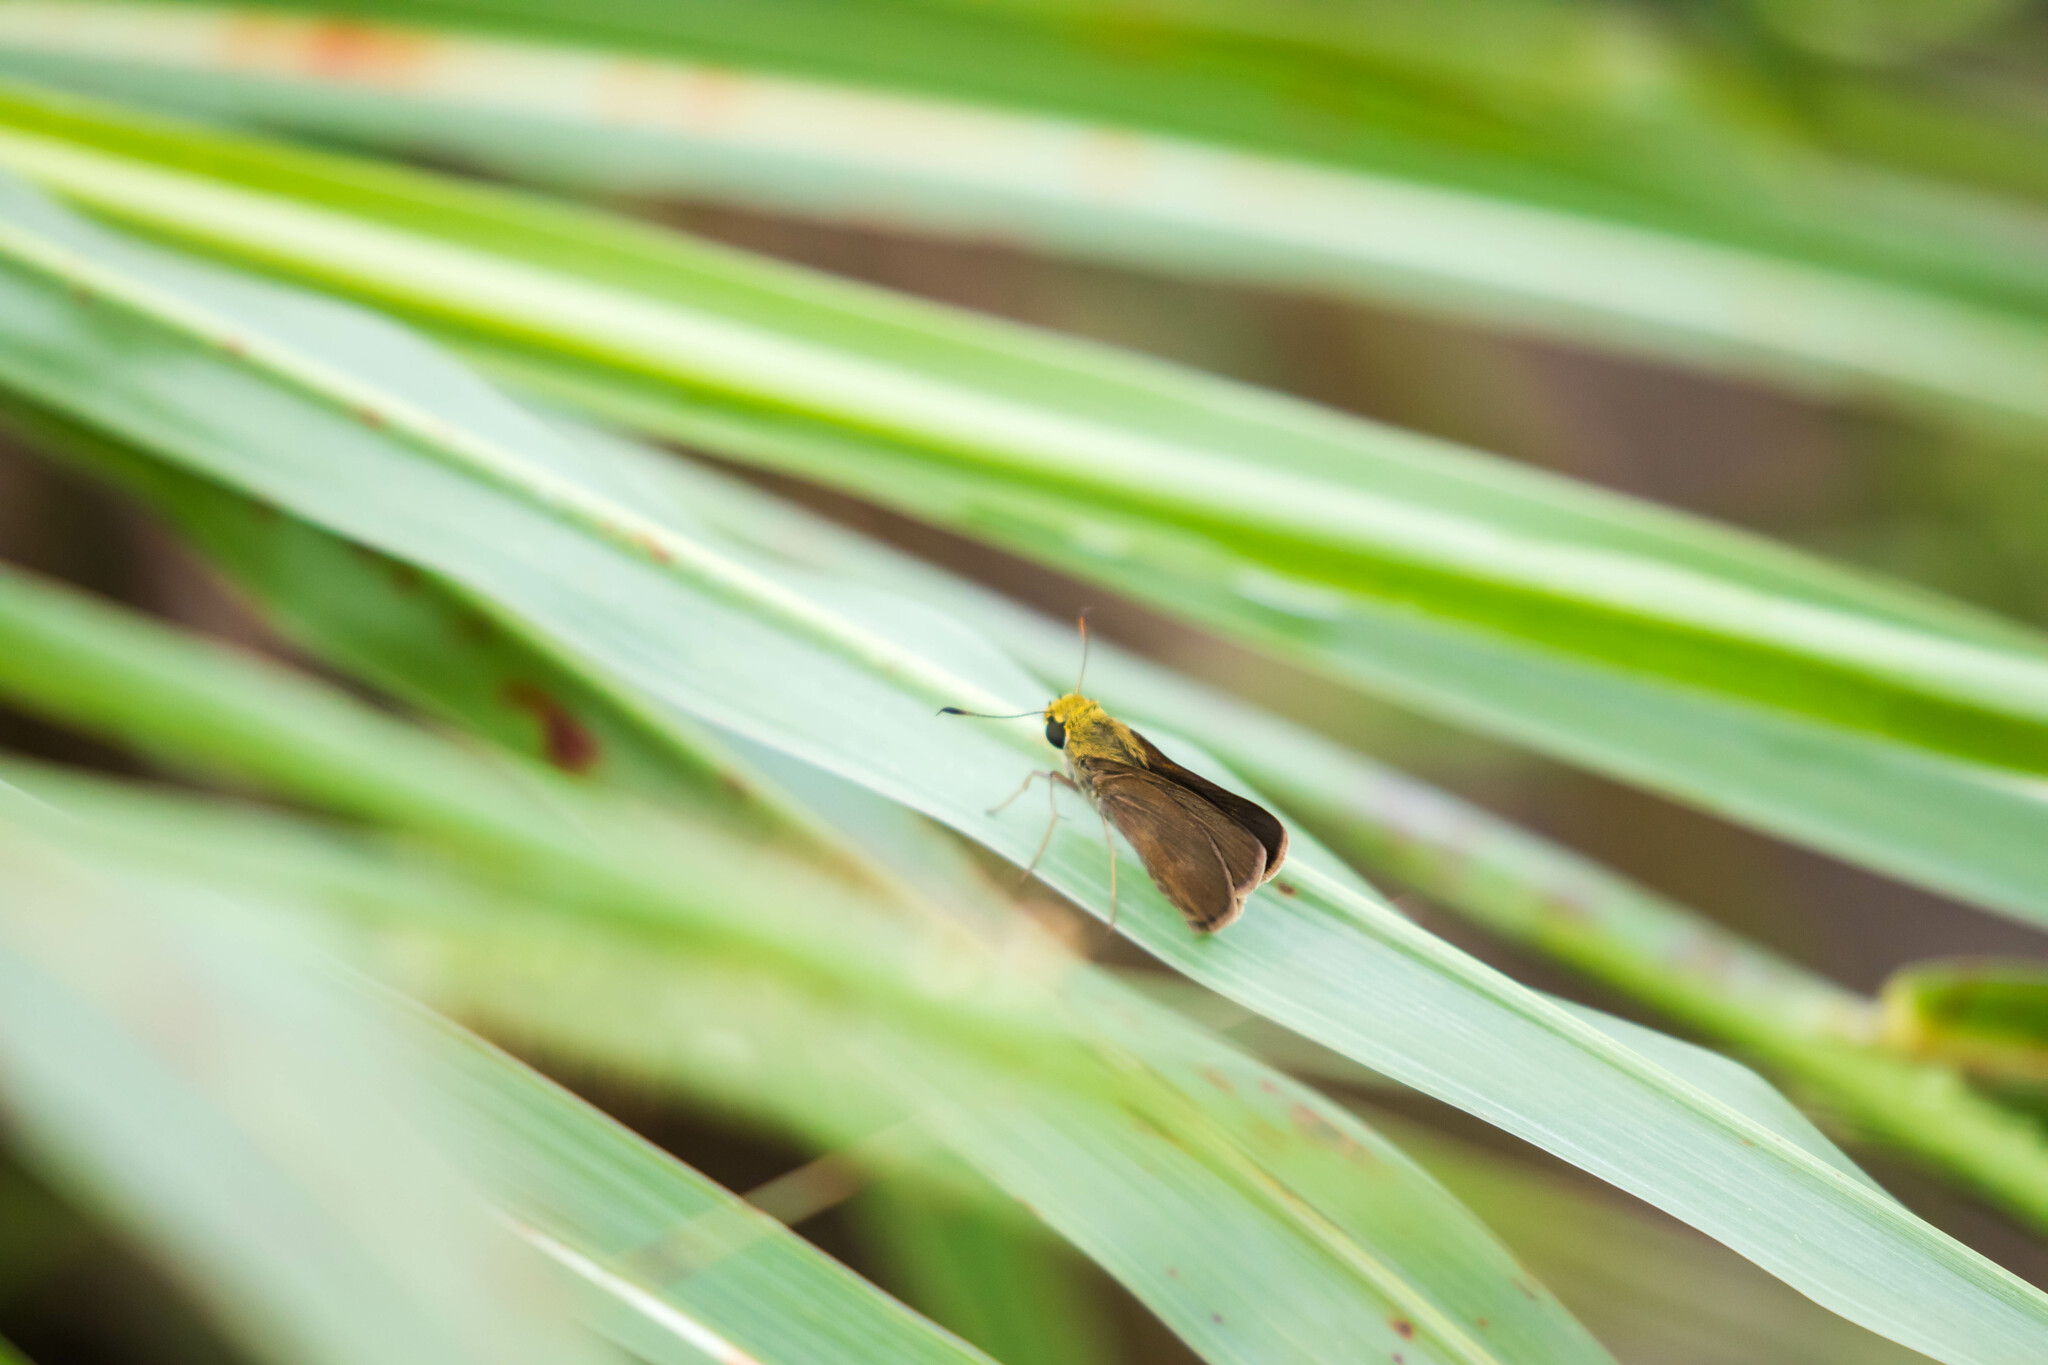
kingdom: Animalia
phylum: Arthropoda
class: Insecta
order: Lepidoptera
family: Hesperiidae
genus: Euphyes
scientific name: Euphyes vestris
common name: Dun skipper
